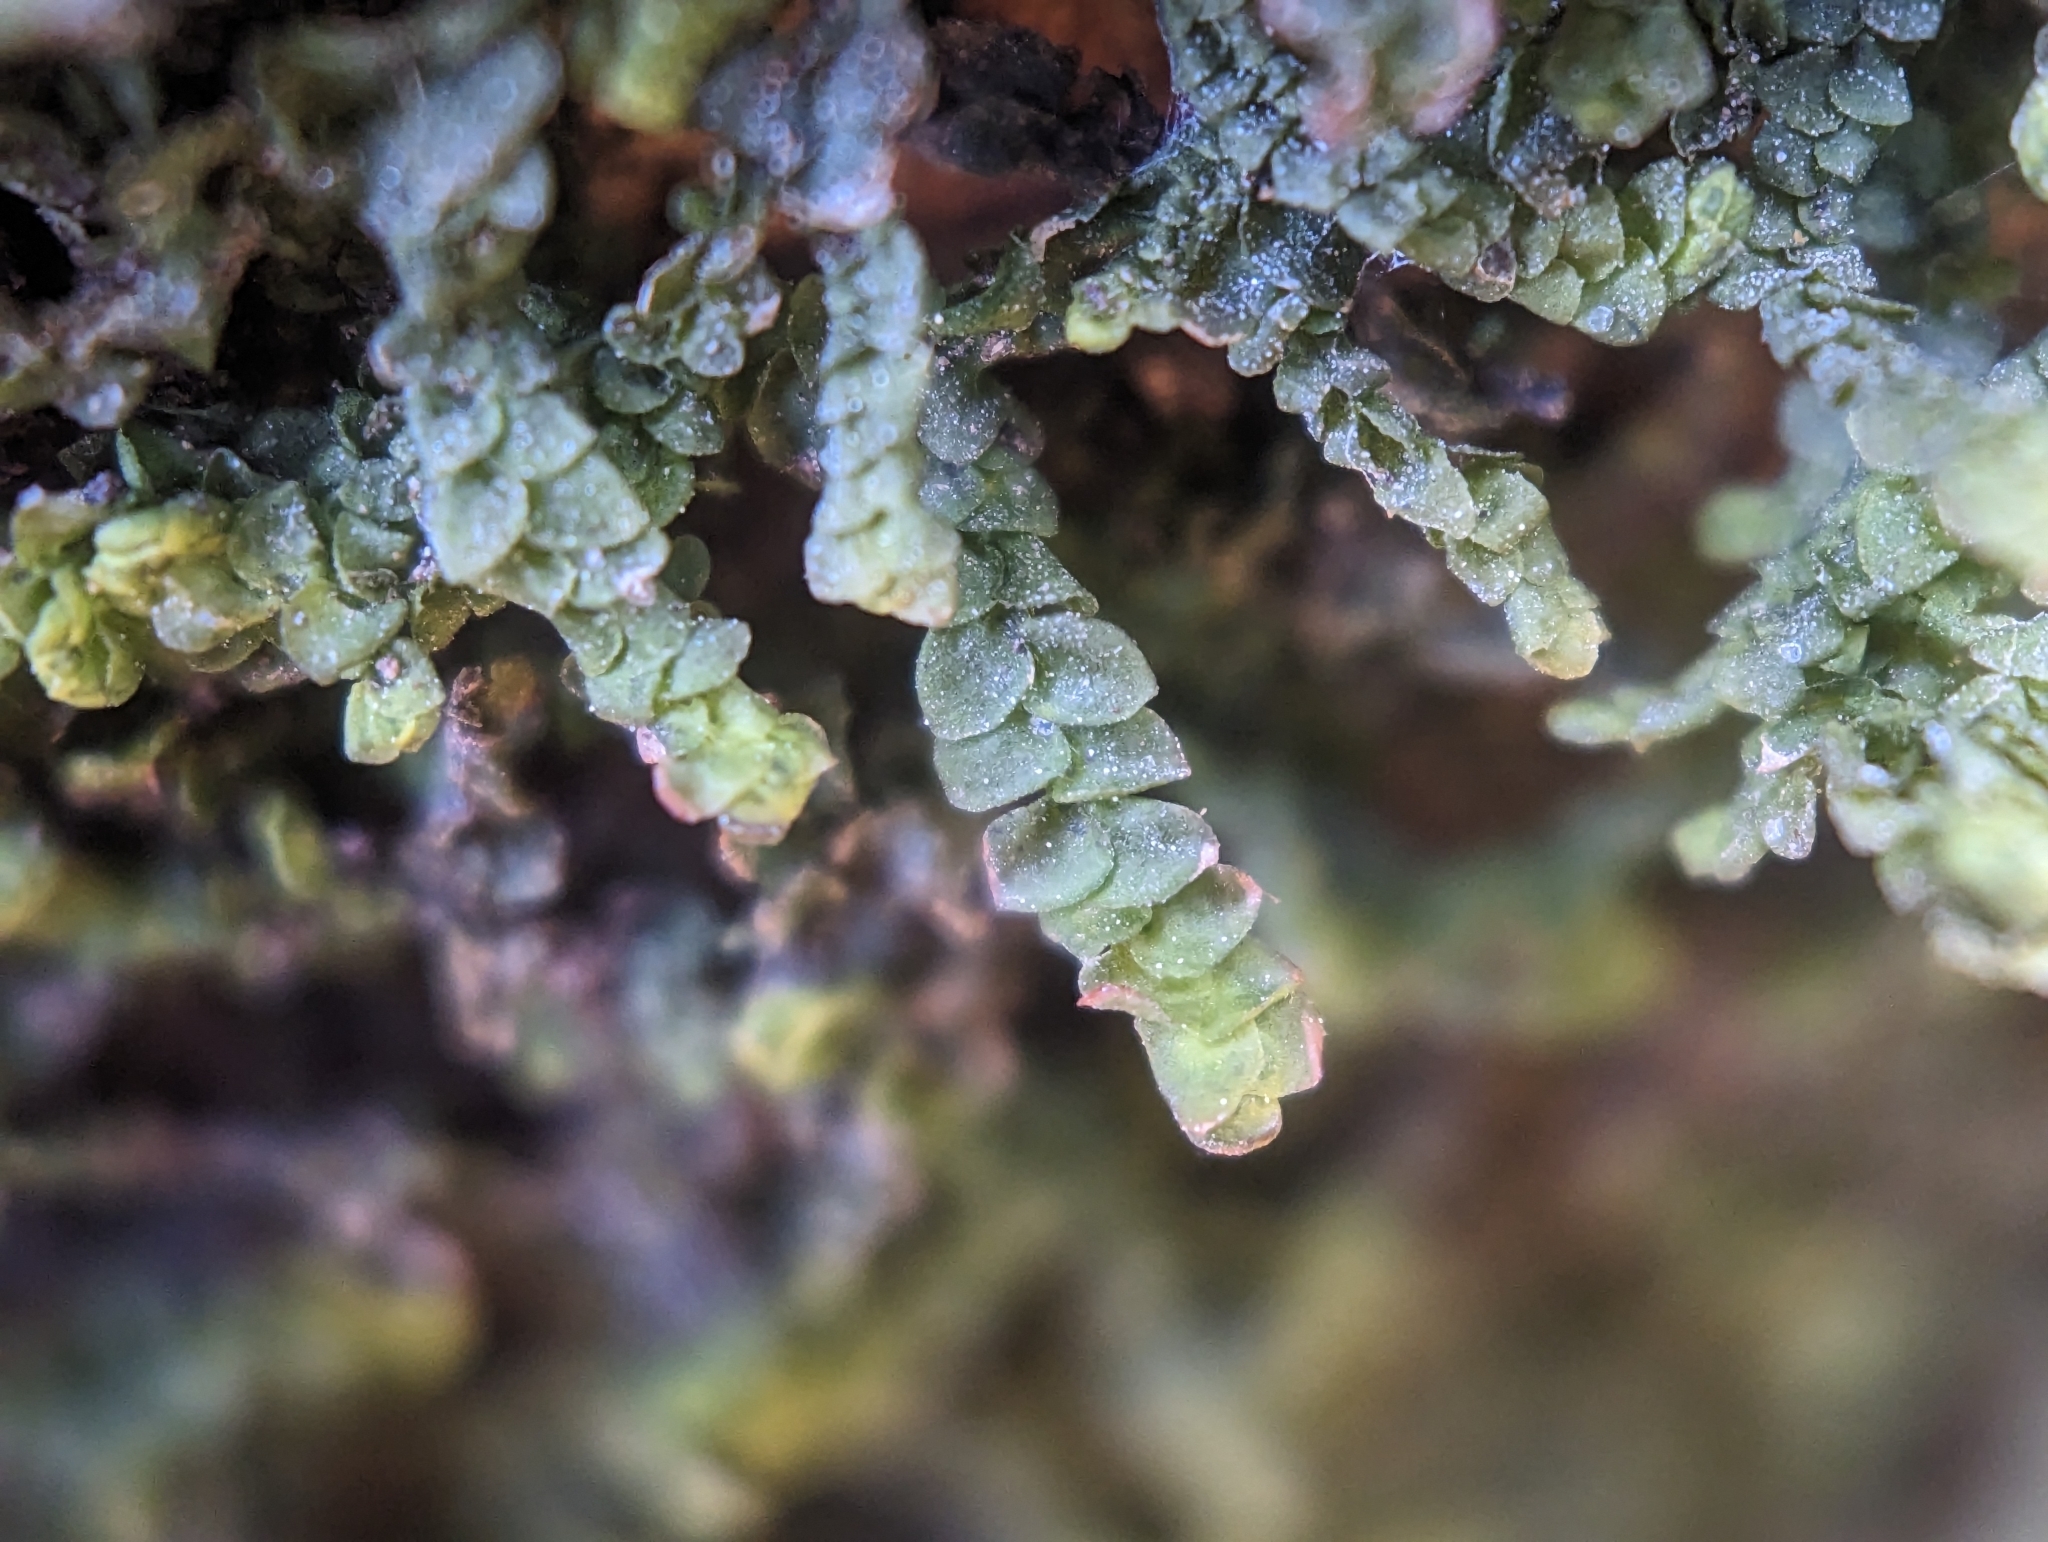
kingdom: Plantae
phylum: Marchantiophyta
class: Jungermanniopsida
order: Porellales
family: Porellaceae
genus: Porella
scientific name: Porella platyphylla
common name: Wall scalewort
